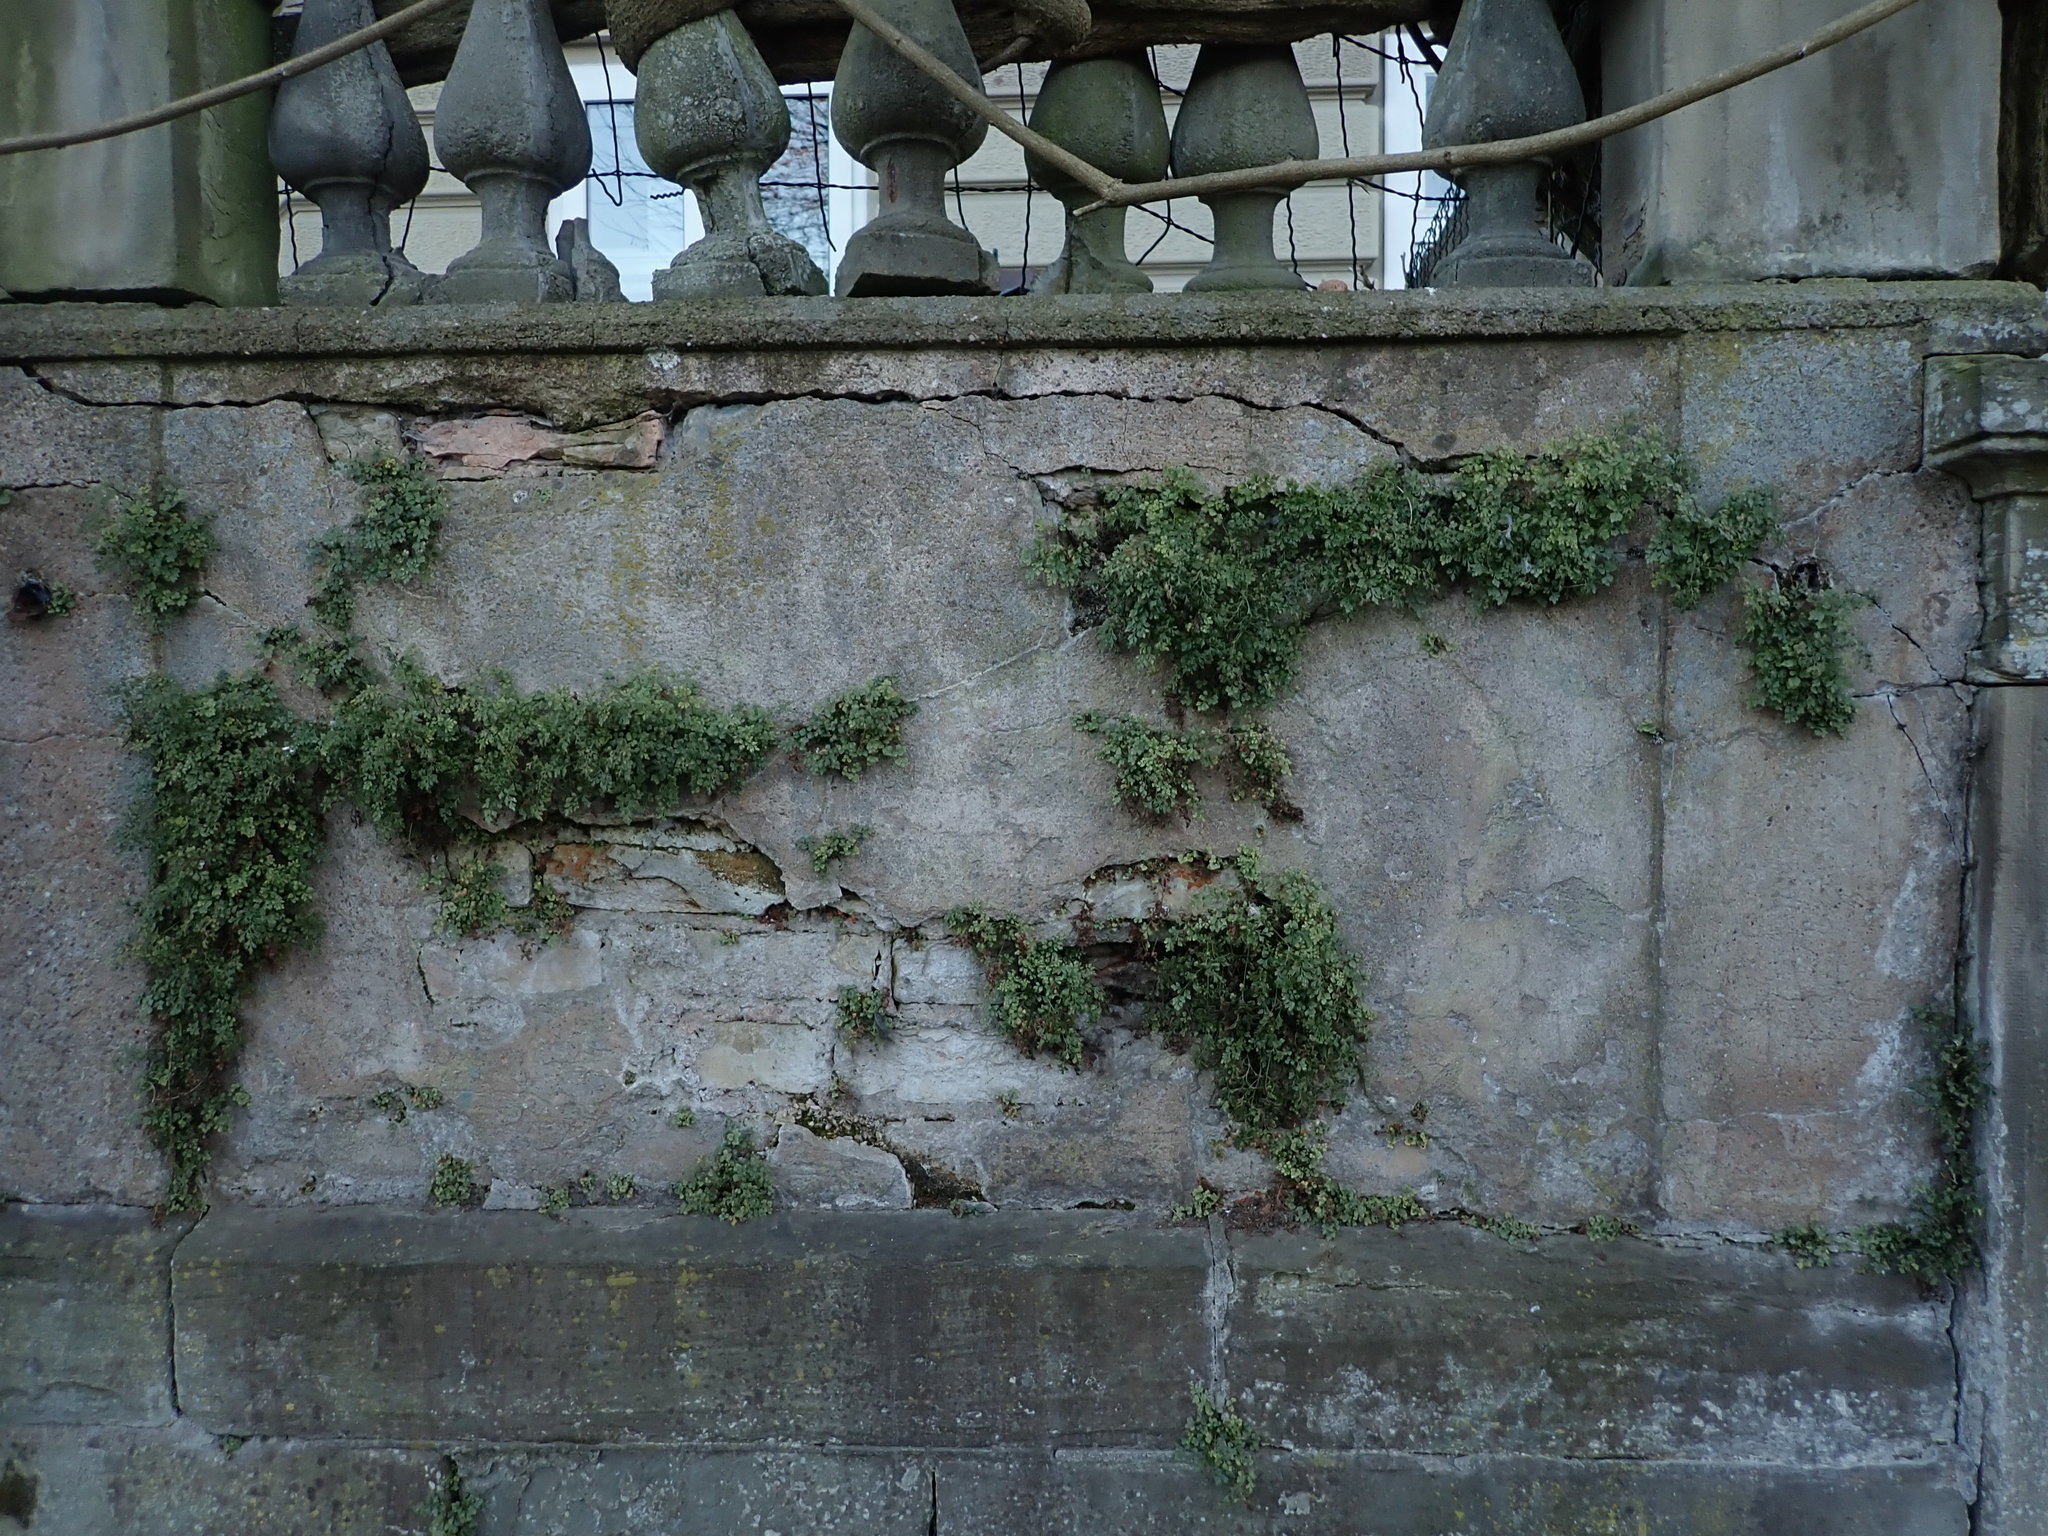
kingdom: Plantae
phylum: Tracheophyta
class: Polypodiopsida
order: Polypodiales
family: Aspleniaceae
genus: Asplenium
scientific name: Asplenium ruta-muraria
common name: Wall-rue
